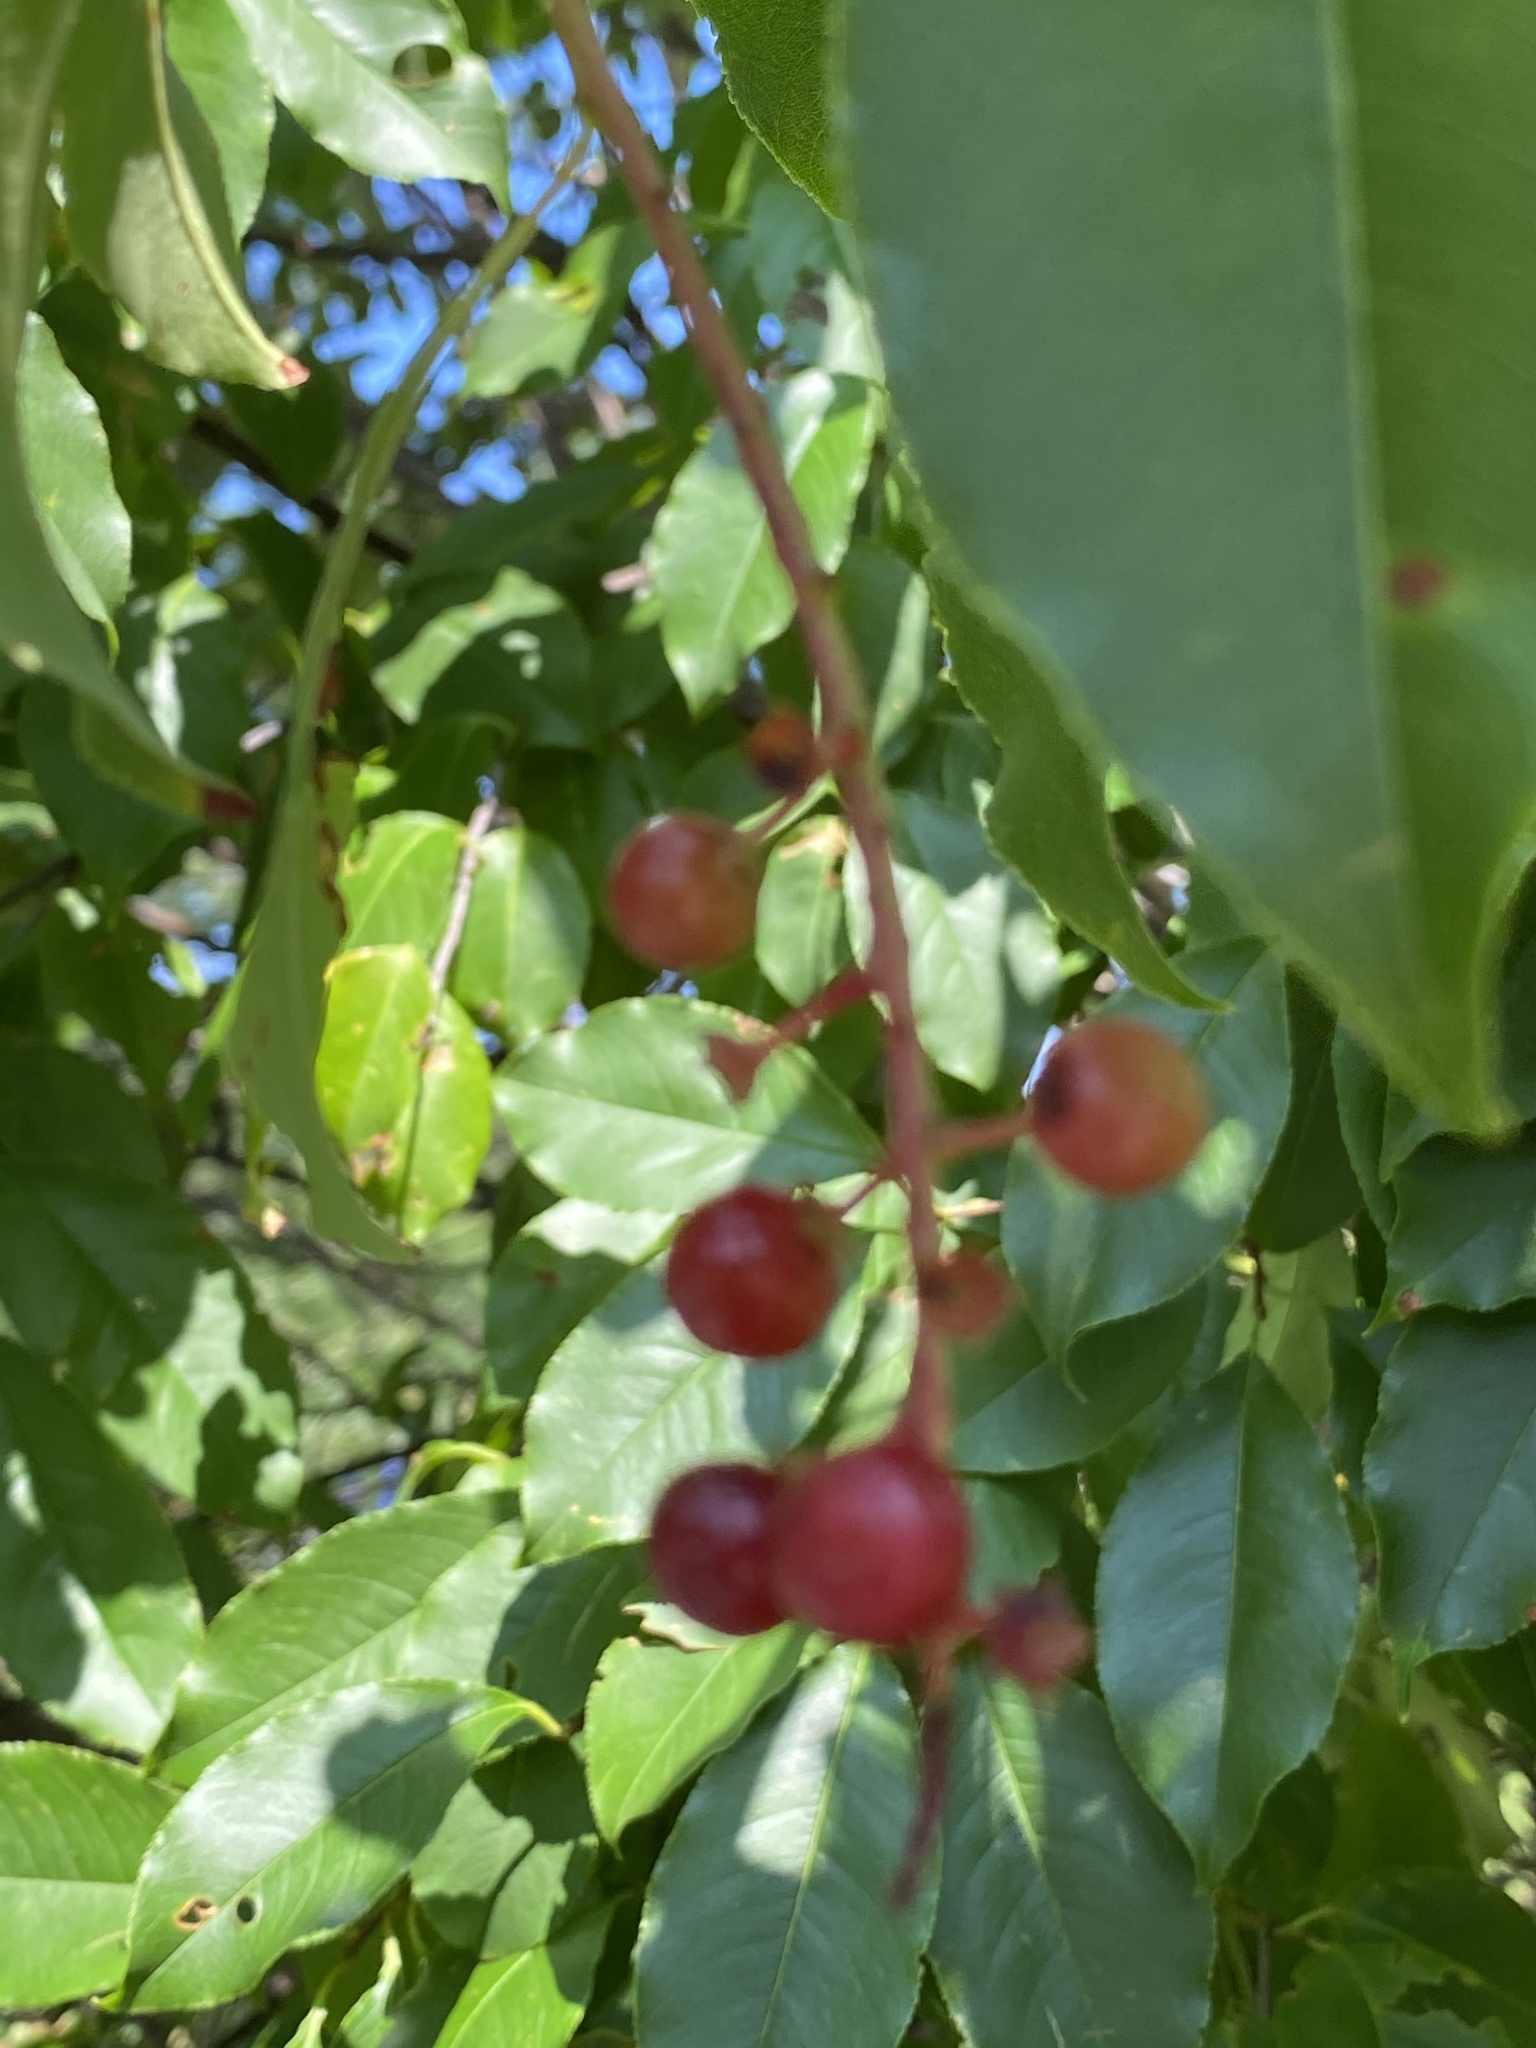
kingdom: Plantae
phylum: Tracheophyta
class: Magnoliopsida
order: Rosales
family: Rosaceae
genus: Prunus
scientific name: Prunus serotina
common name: Black cherry
